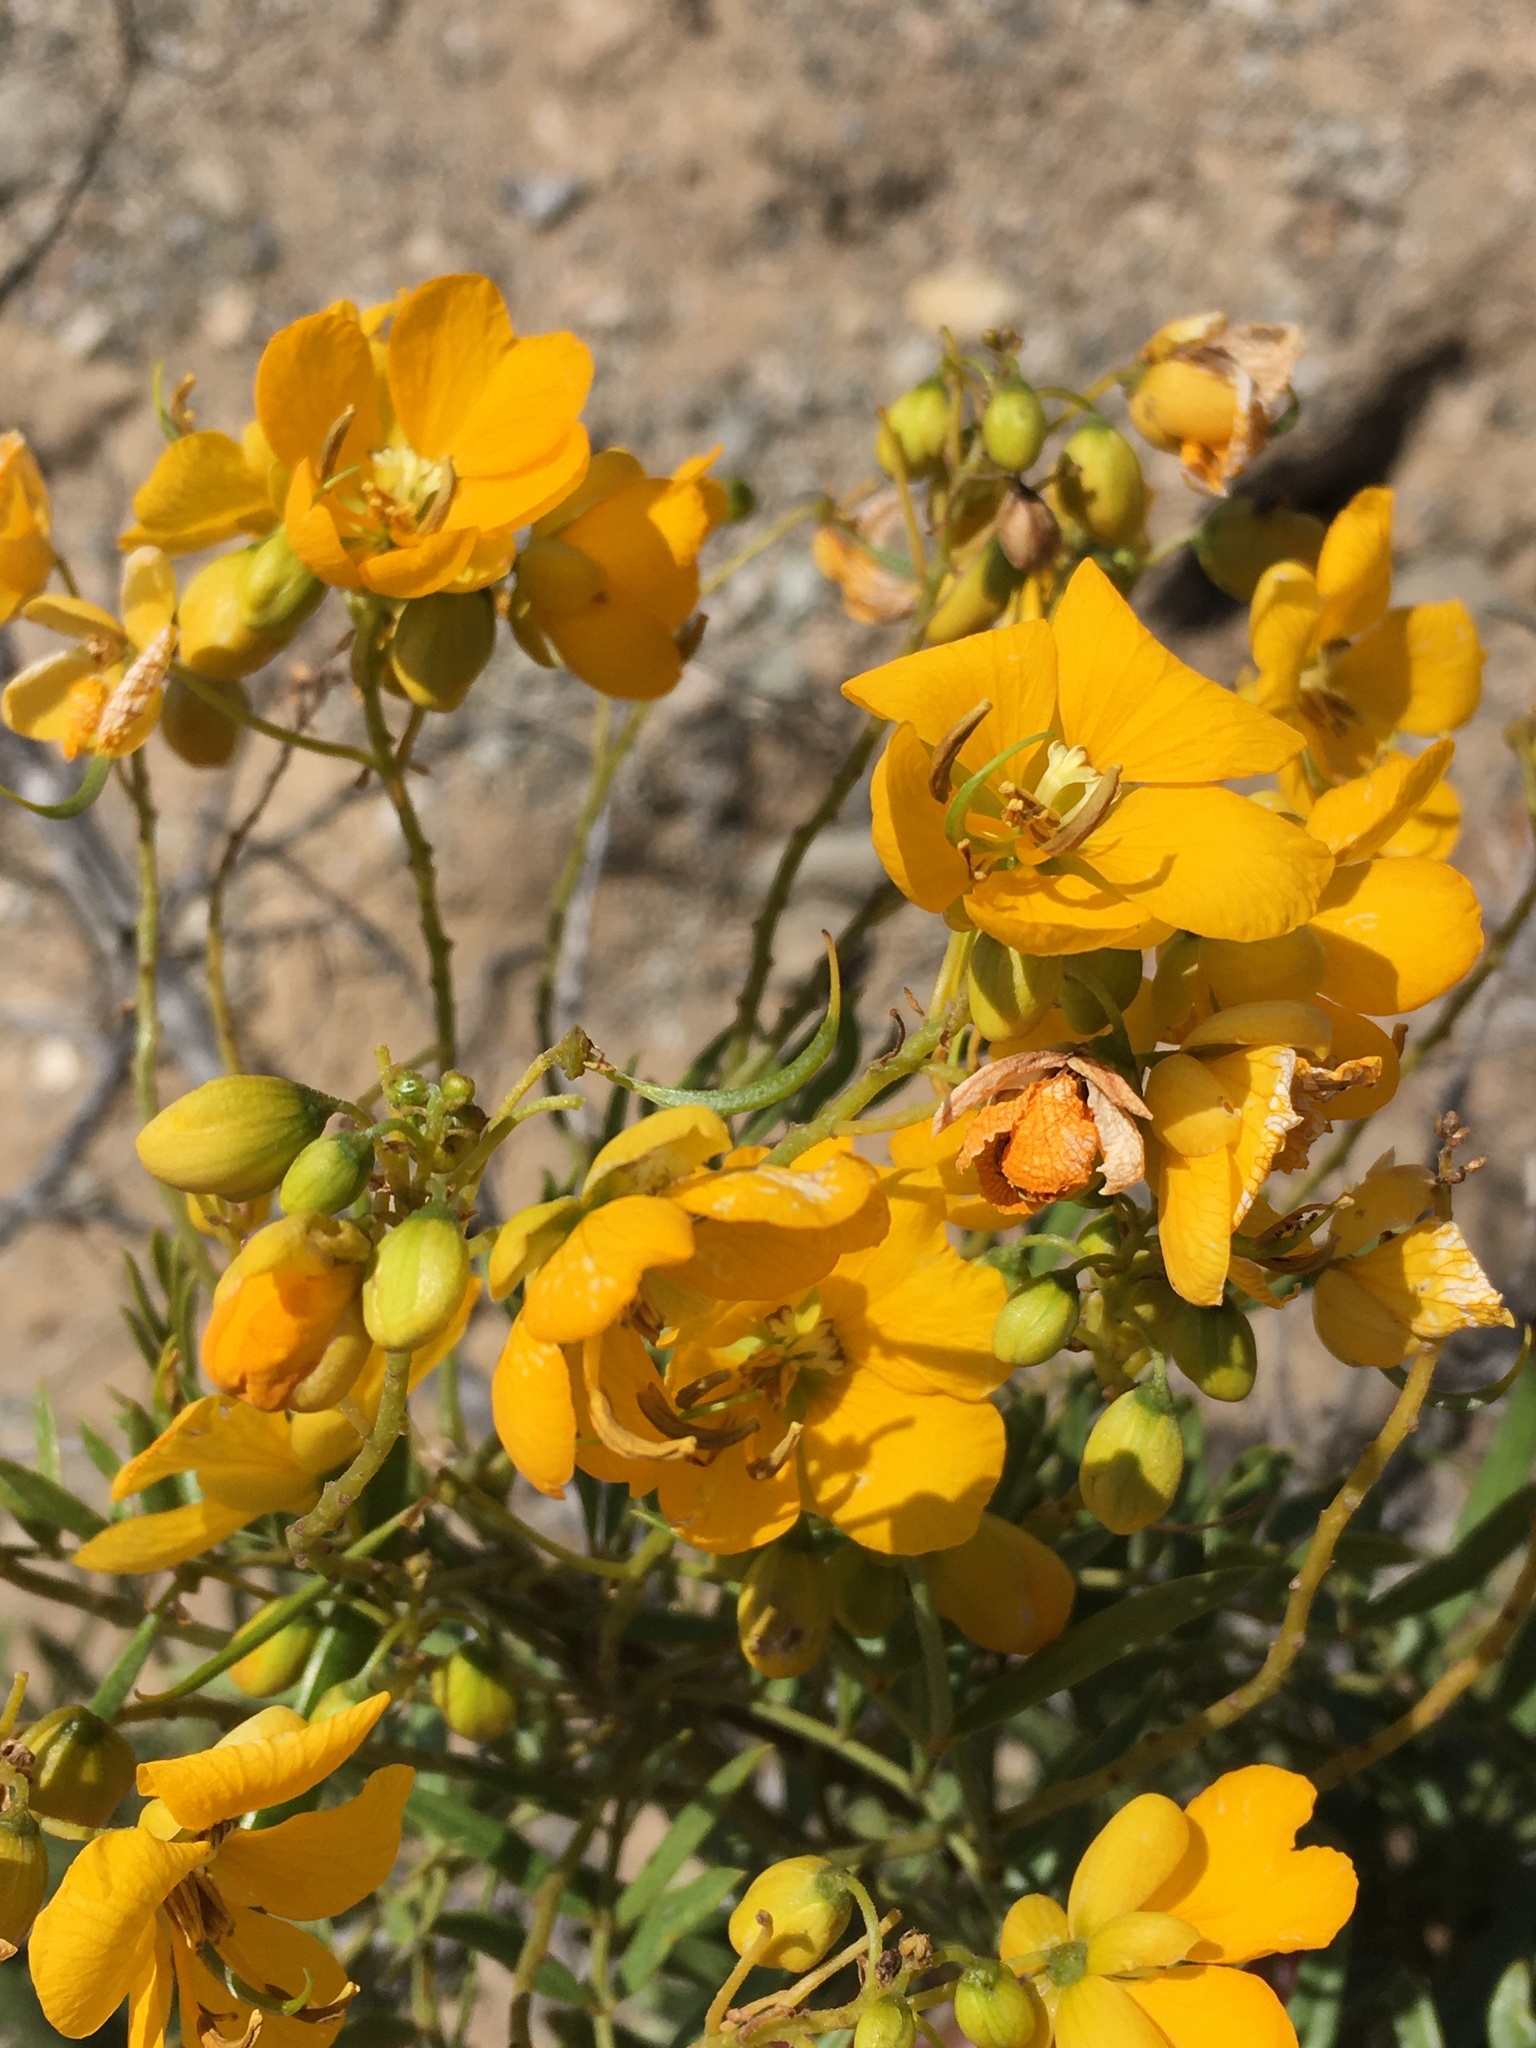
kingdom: Plantae
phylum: Tracheophyta
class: Magnoliopsida
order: Fabales
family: Fabaceae
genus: Senna
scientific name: Senna cumingii
